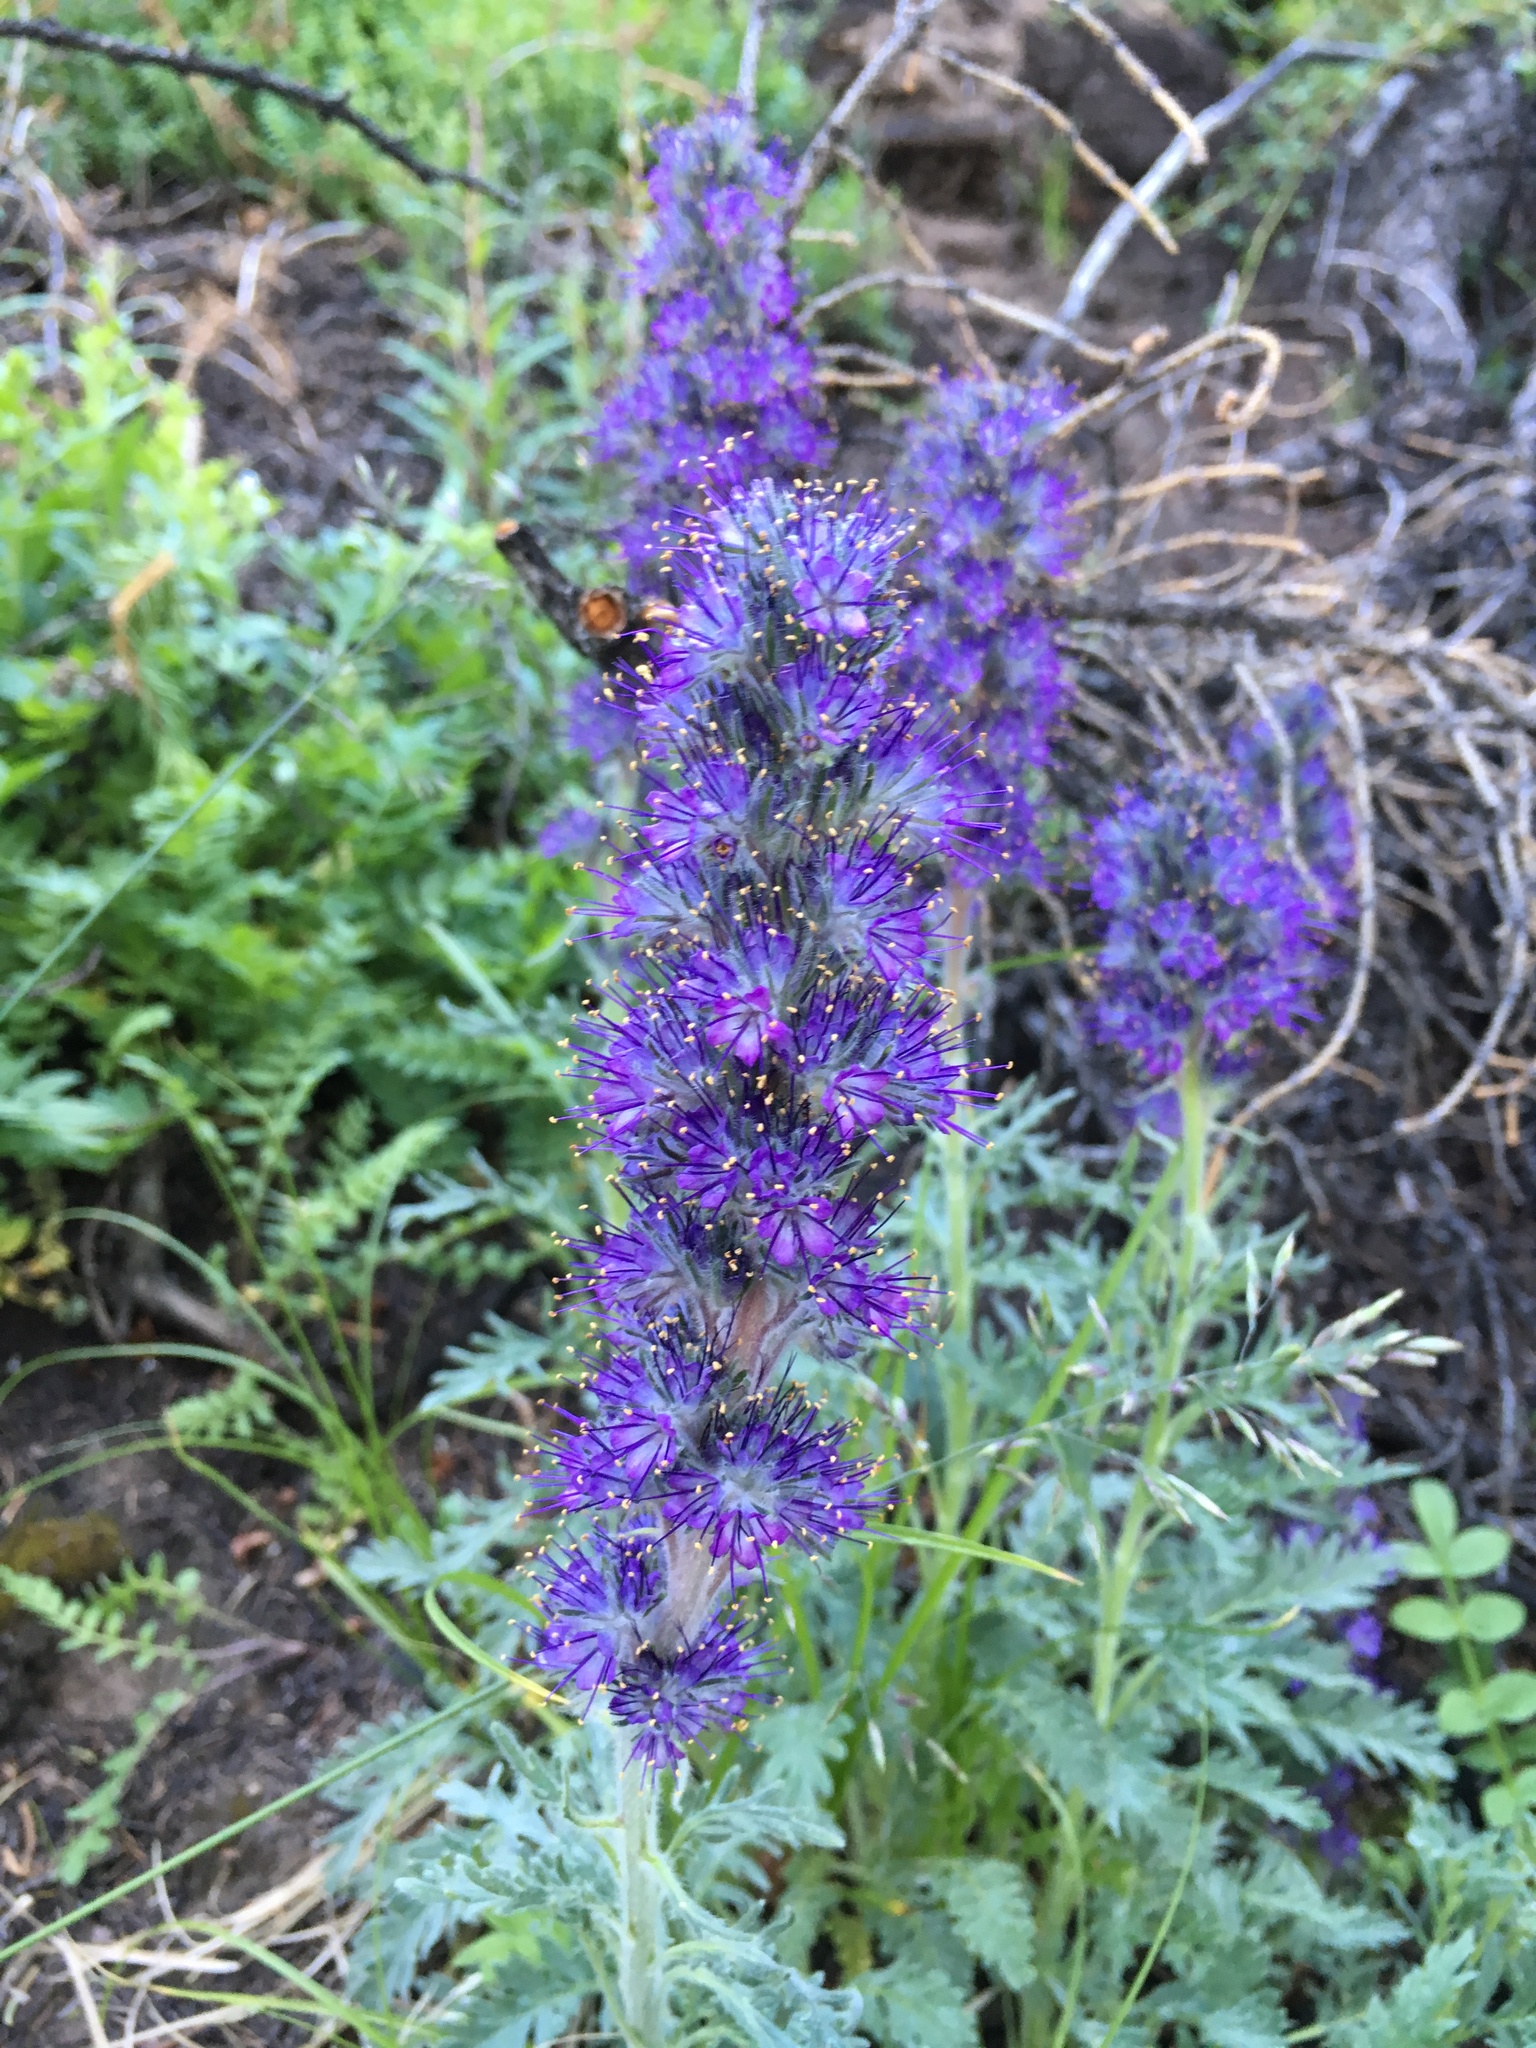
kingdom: Plantae
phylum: Tracheophyta
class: Magnoliopsida
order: Boraginales
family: Hydrophyllaceae
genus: Phacelia
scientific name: Phacelia sericea
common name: Silky phacelia
